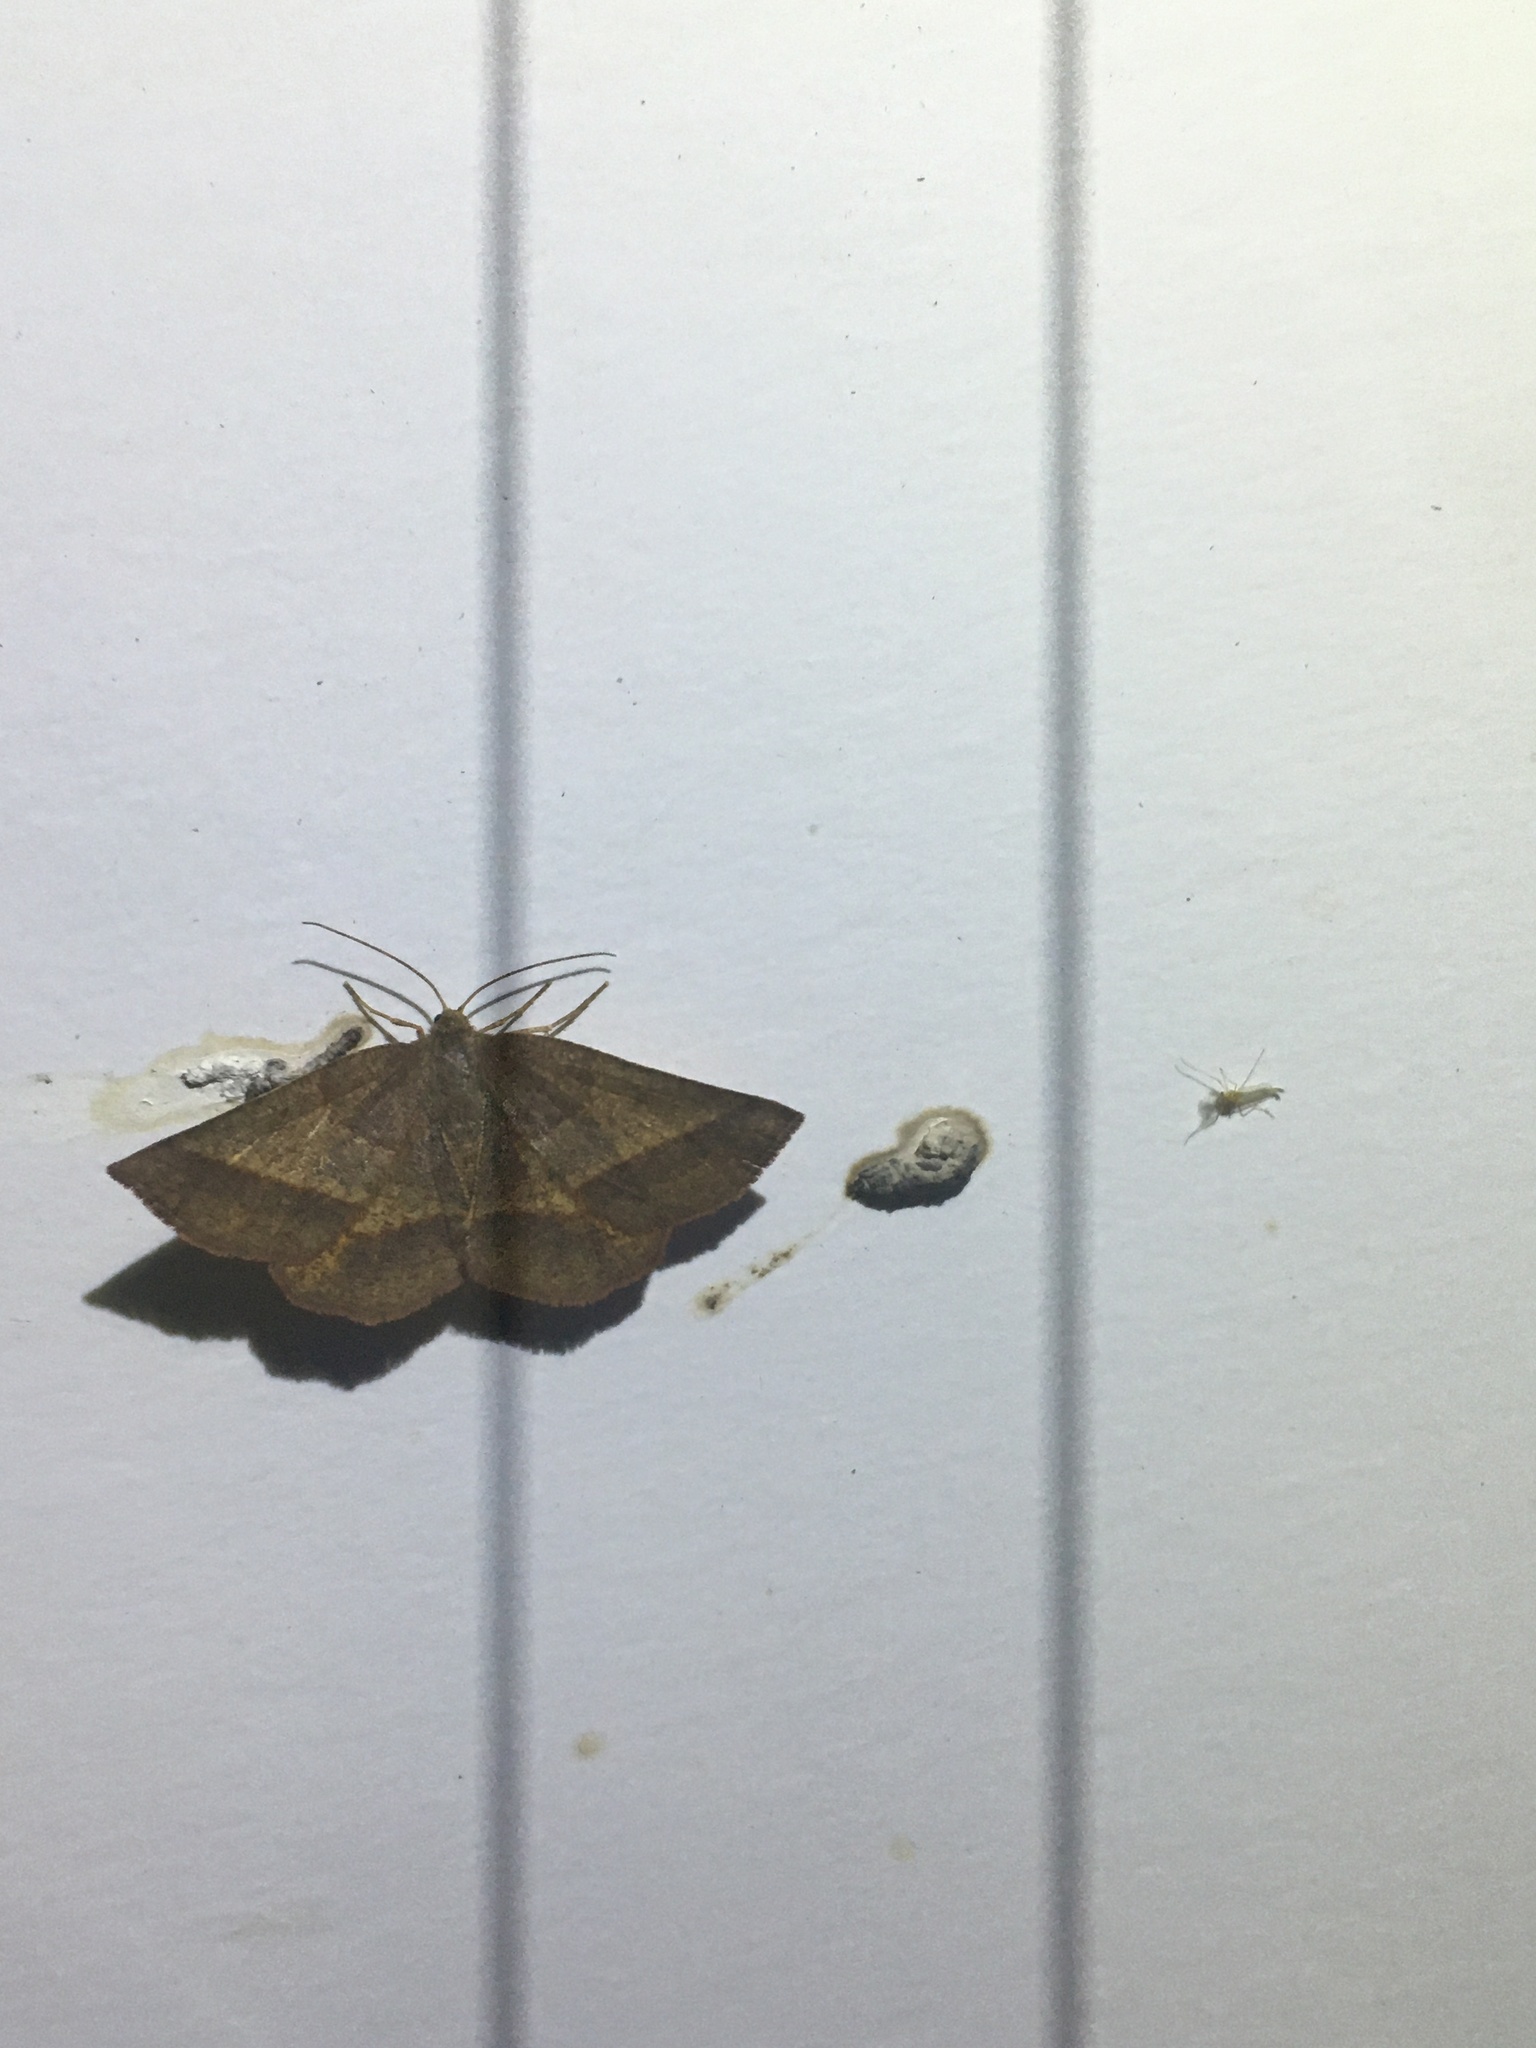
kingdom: Animalia
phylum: Arthropoda
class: Insecta
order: Lepidoptera
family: Geometridae
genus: Metarranthis
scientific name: Metarranthis obfirmaria
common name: Yellow-washed metarranthis
